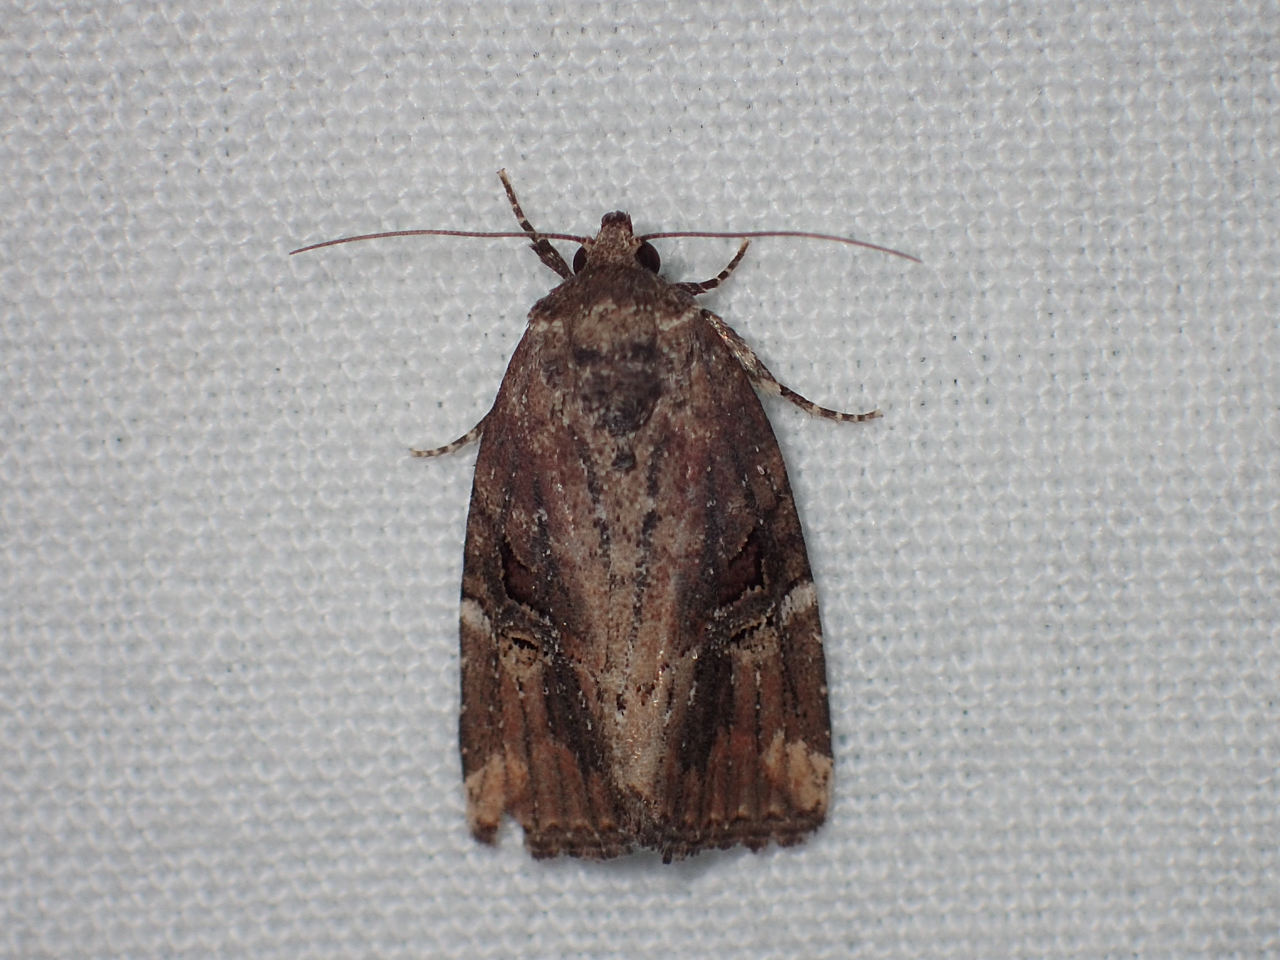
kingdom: Animalia
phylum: Arthropoda
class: Insecta
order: Lepidoptera
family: Noctuidae
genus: Elaphria
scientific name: Elaphria versicolor
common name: Fir harlequin
